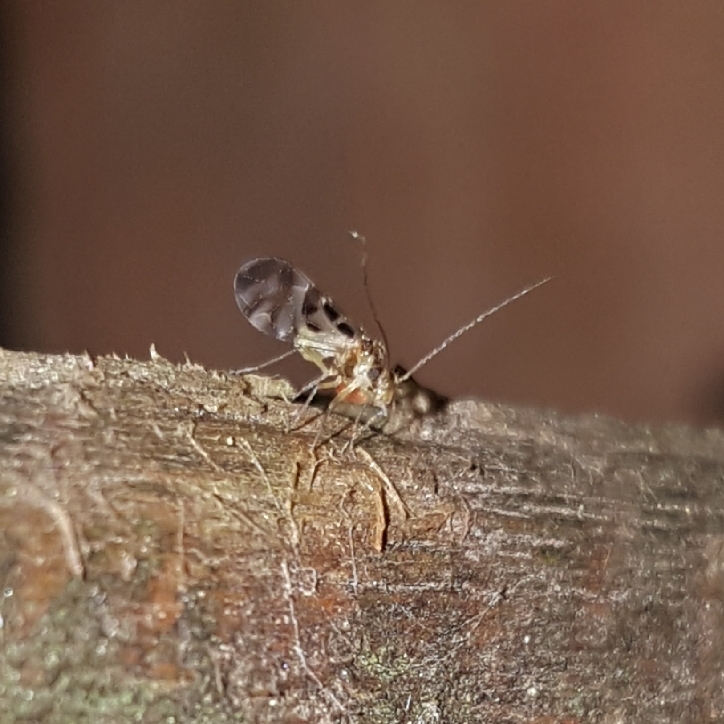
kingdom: Animalia
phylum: Arthropoda
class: Insecta
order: Psocodea
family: Stenopsocidae
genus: Graphopsocus
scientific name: Graphopsocus cruciatus
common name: Lizard bark louse
